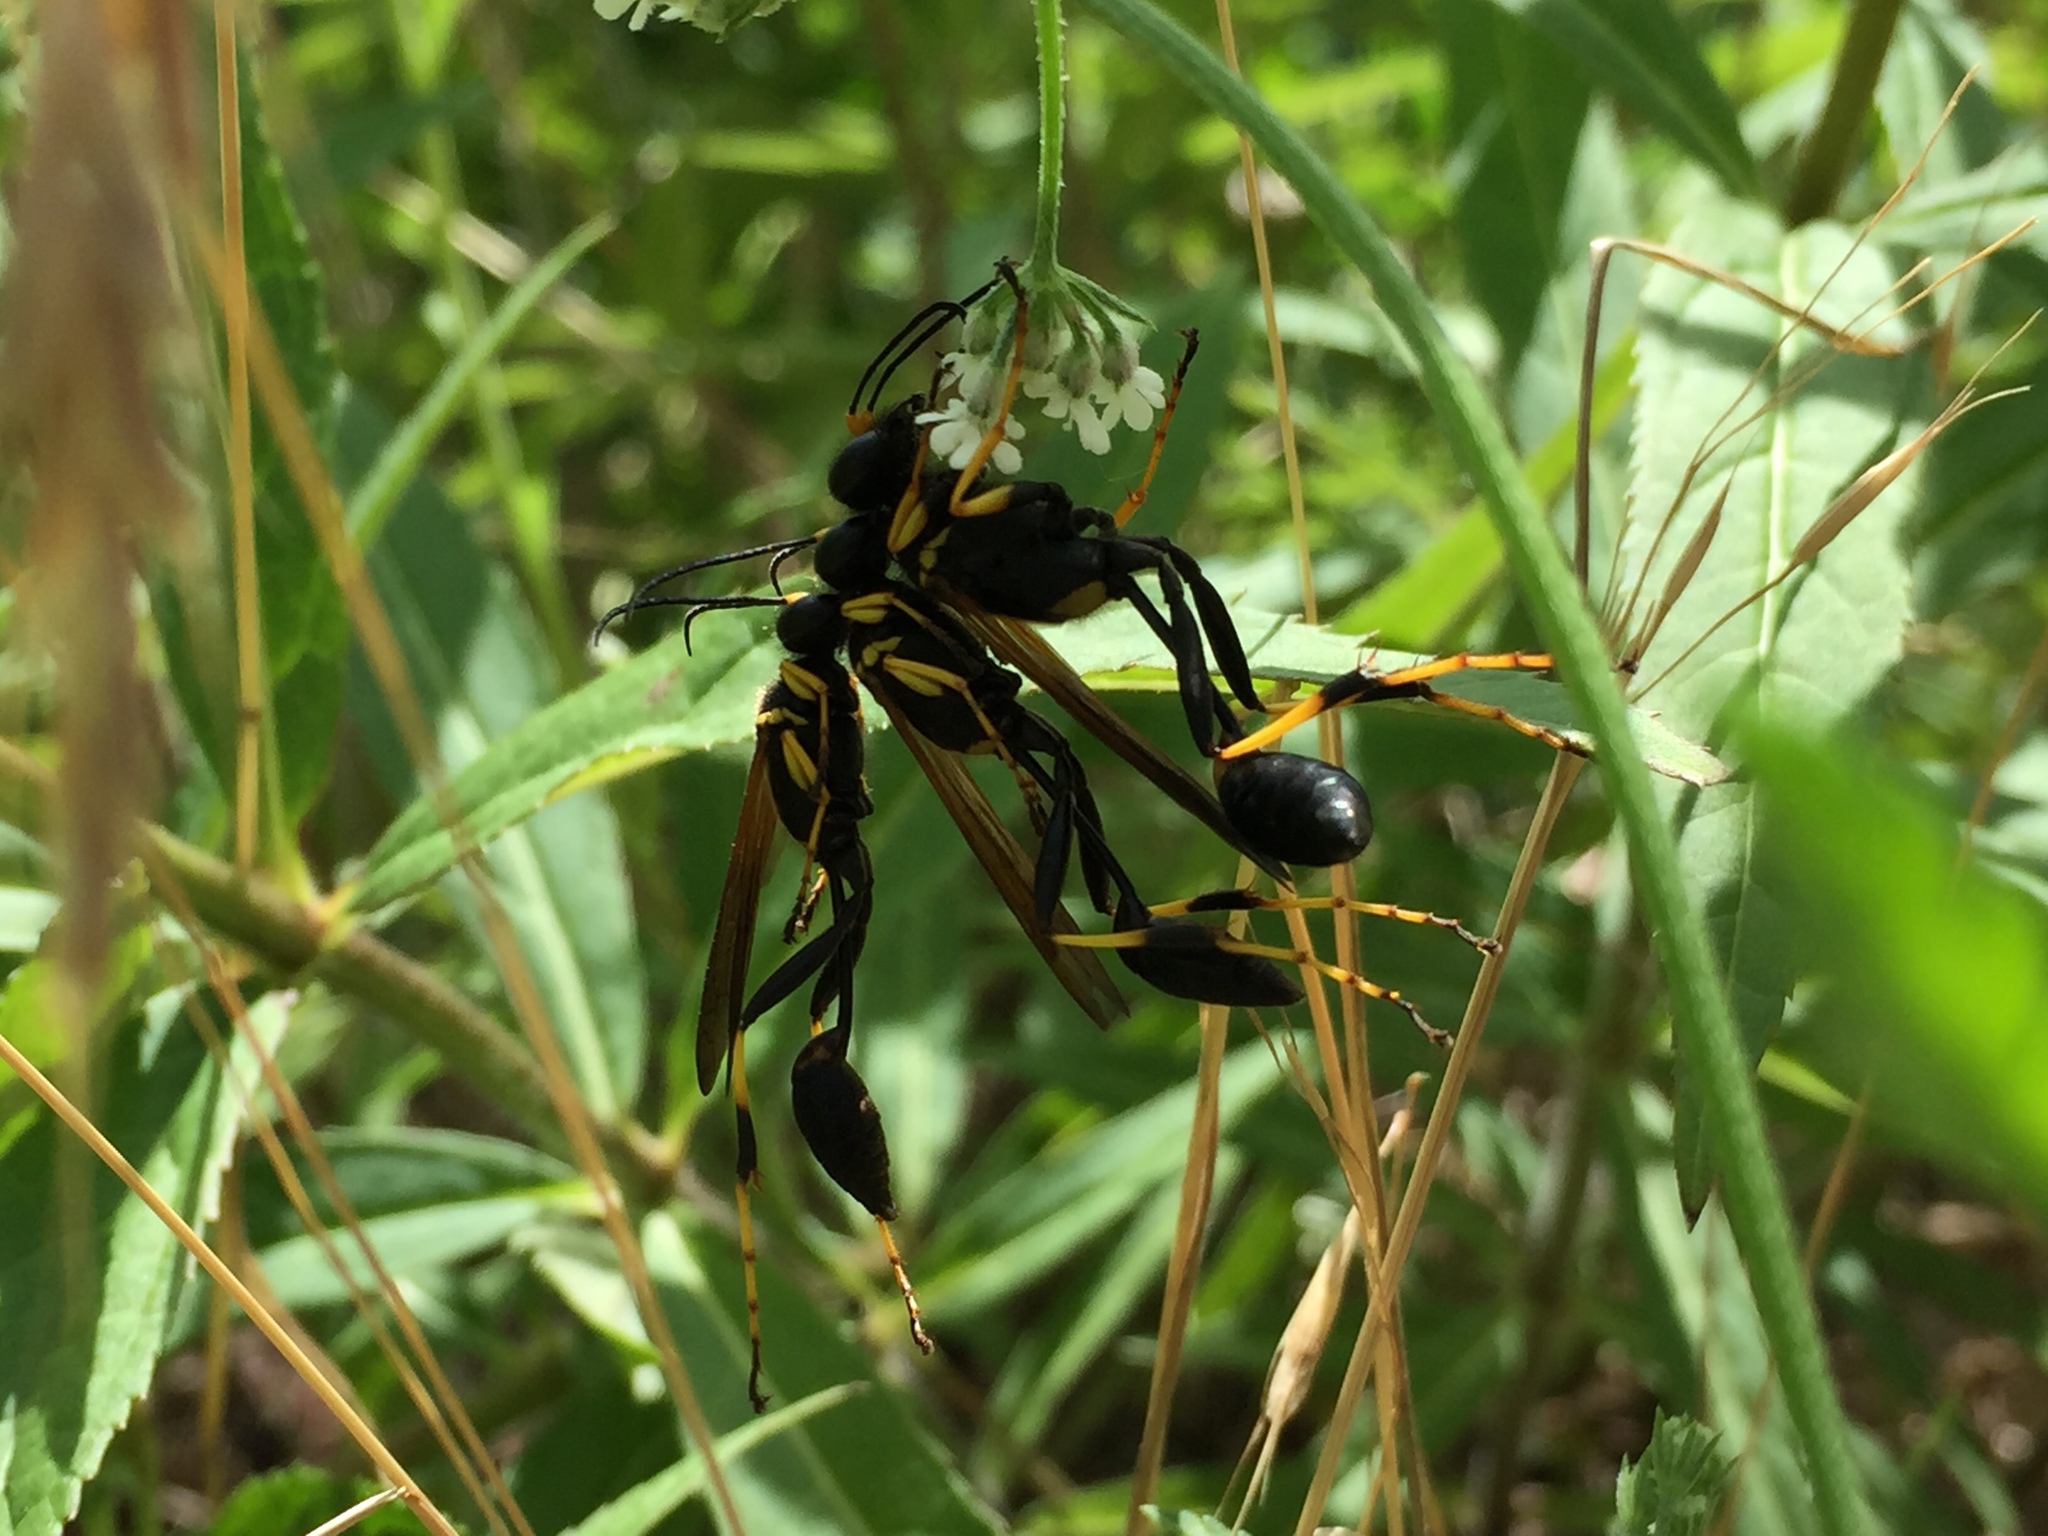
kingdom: Animalia
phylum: Arthropoda
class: Insecta
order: Hymenoptera
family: Sphecidae
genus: Sceliphron
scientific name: Sceliphron caementarium
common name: Mud dauber
